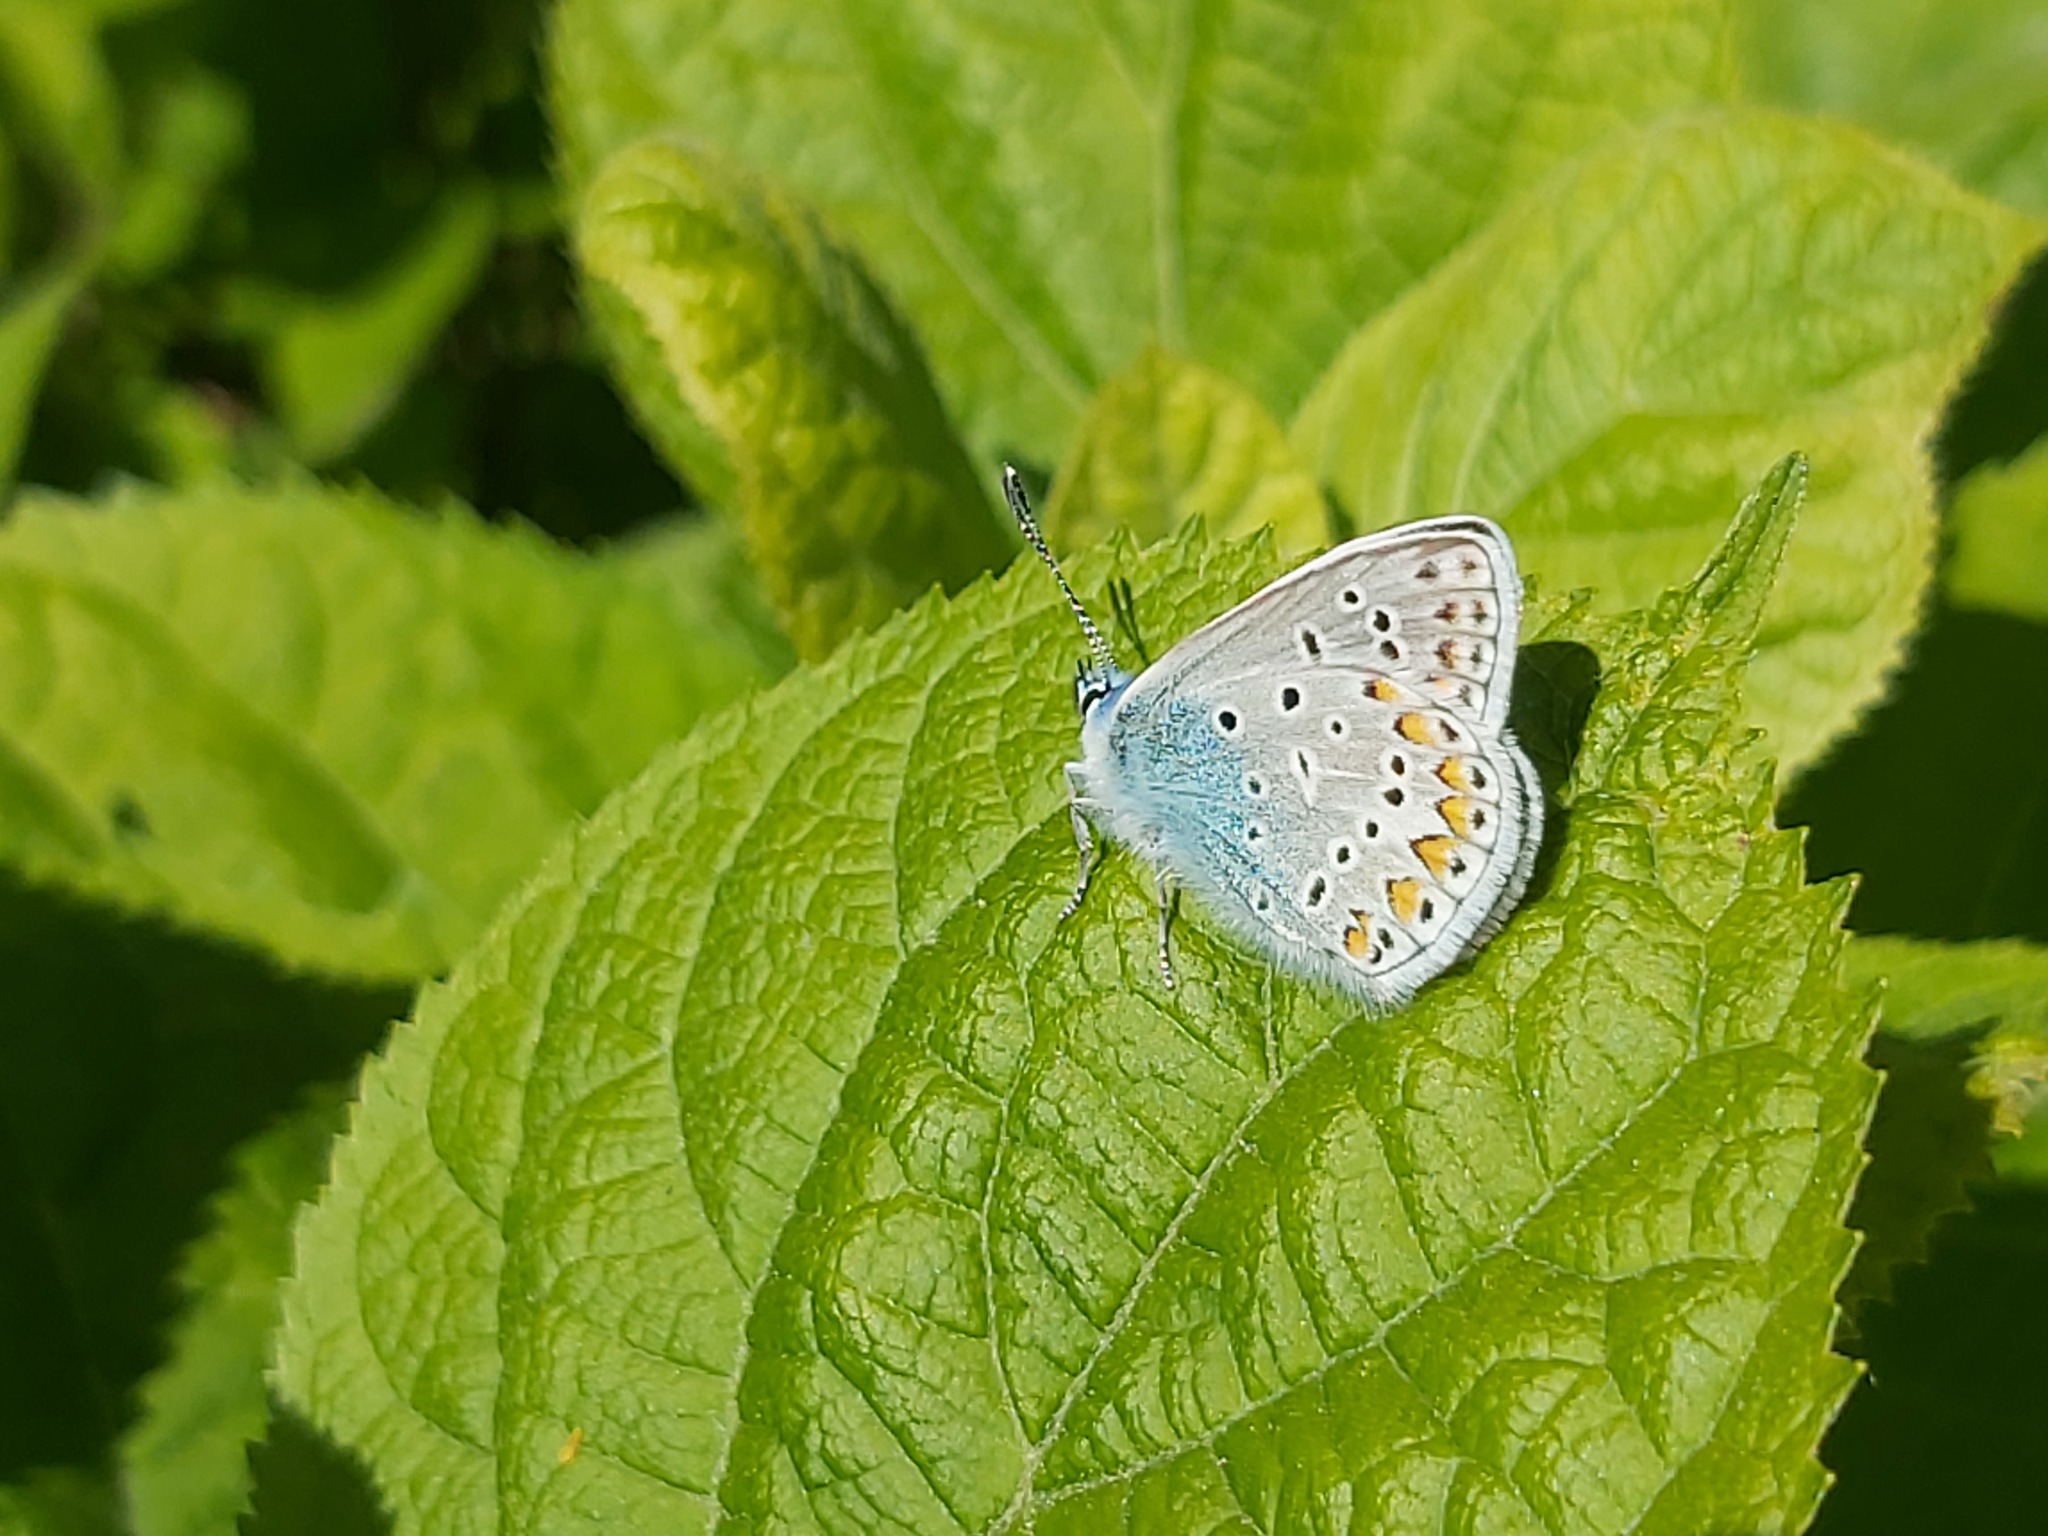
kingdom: Animalia
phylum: Arthropoda
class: Insecta
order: Lepidoptera
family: Lycaenidae
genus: Polyommatus
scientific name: Polyommatus icarus
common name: Common blue
